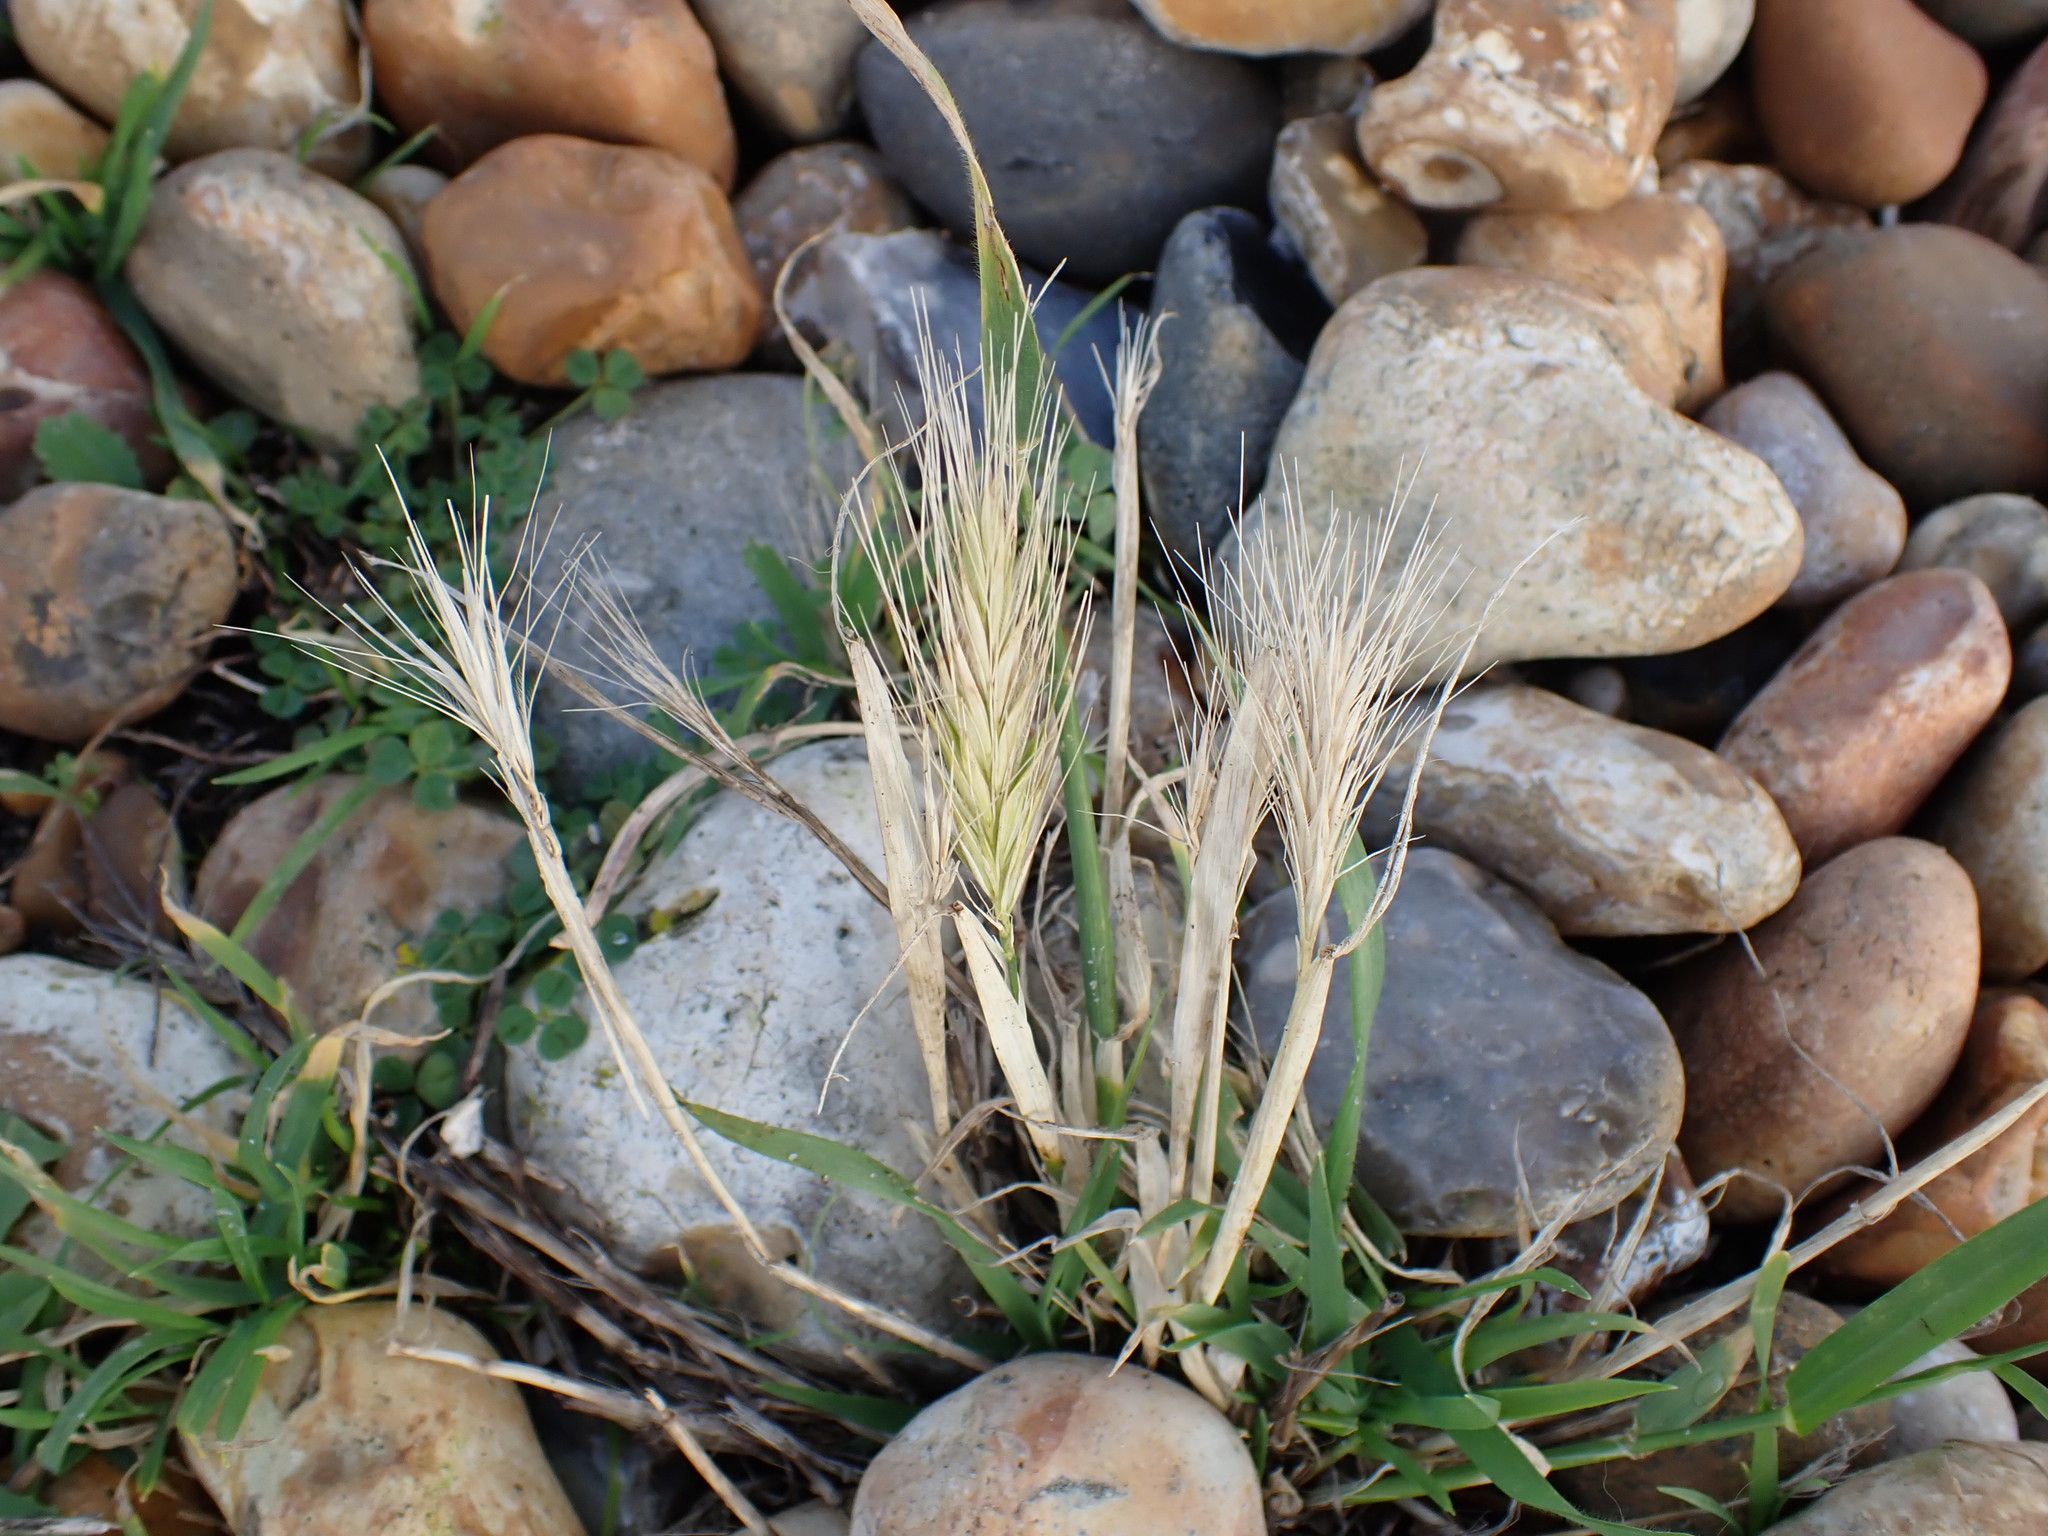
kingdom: Plantae
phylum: Tracheophyta
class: Liliopsida
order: Poales
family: Poaceae
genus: Hordeum
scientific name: Hordeum murinum
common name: Wall barley
